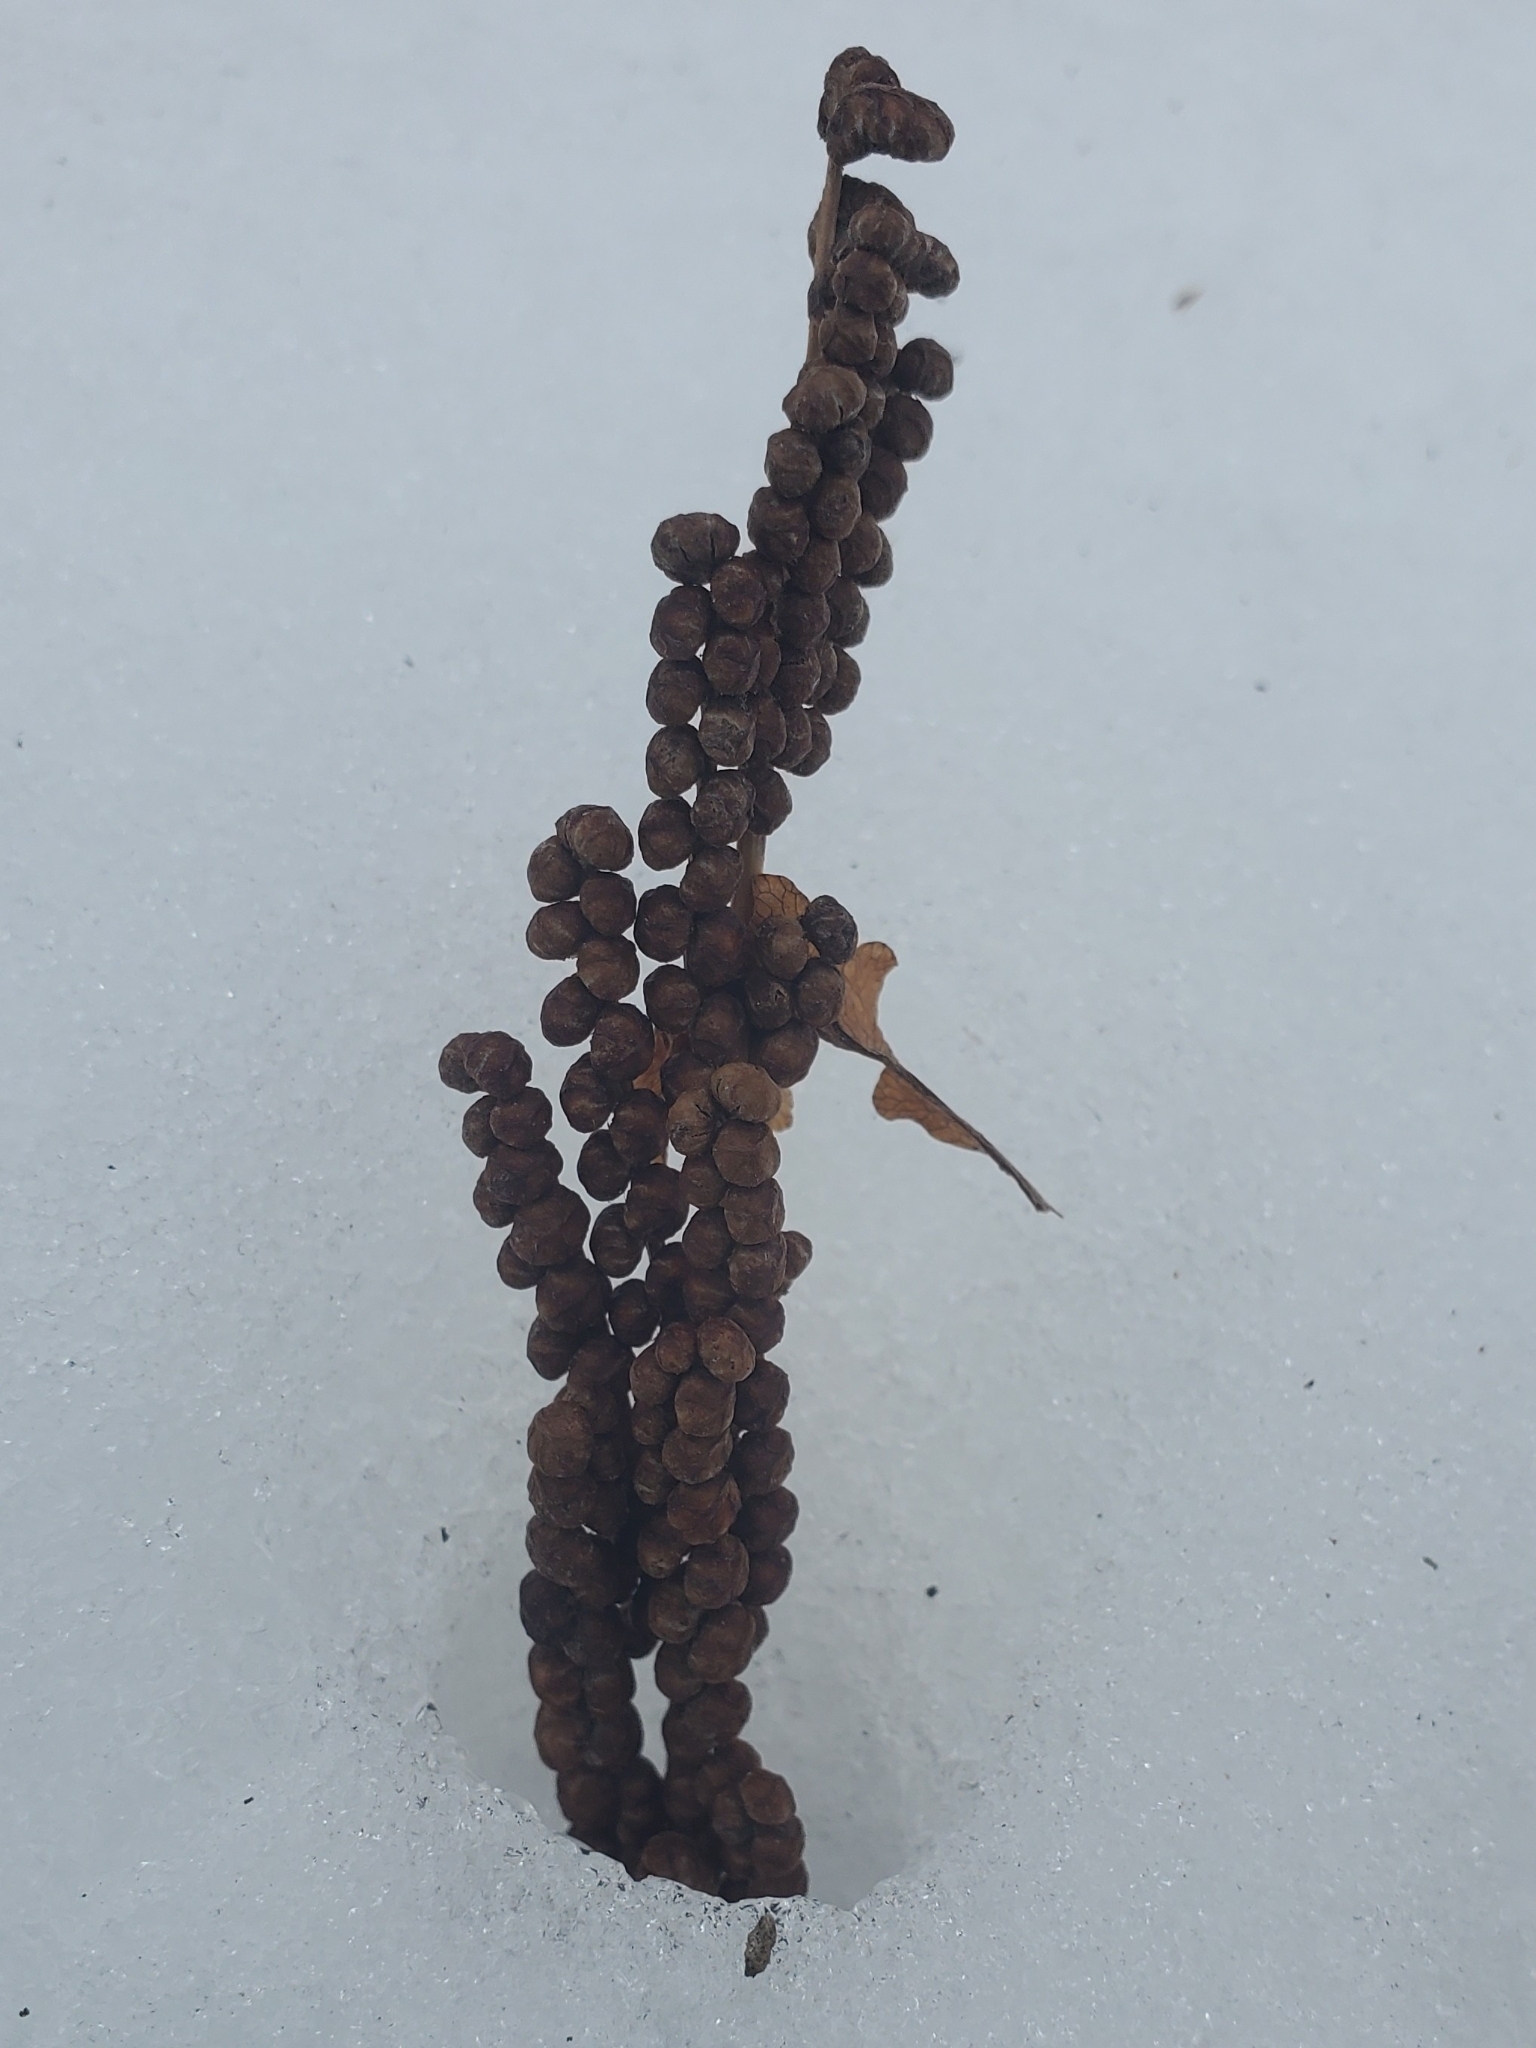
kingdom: Plantae
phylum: Tracheophyta
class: Polypodiopsida
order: Polypodiales
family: Onocleaceae
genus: Onoclea
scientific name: Onoclea sensibilis
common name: Sensitive fern
